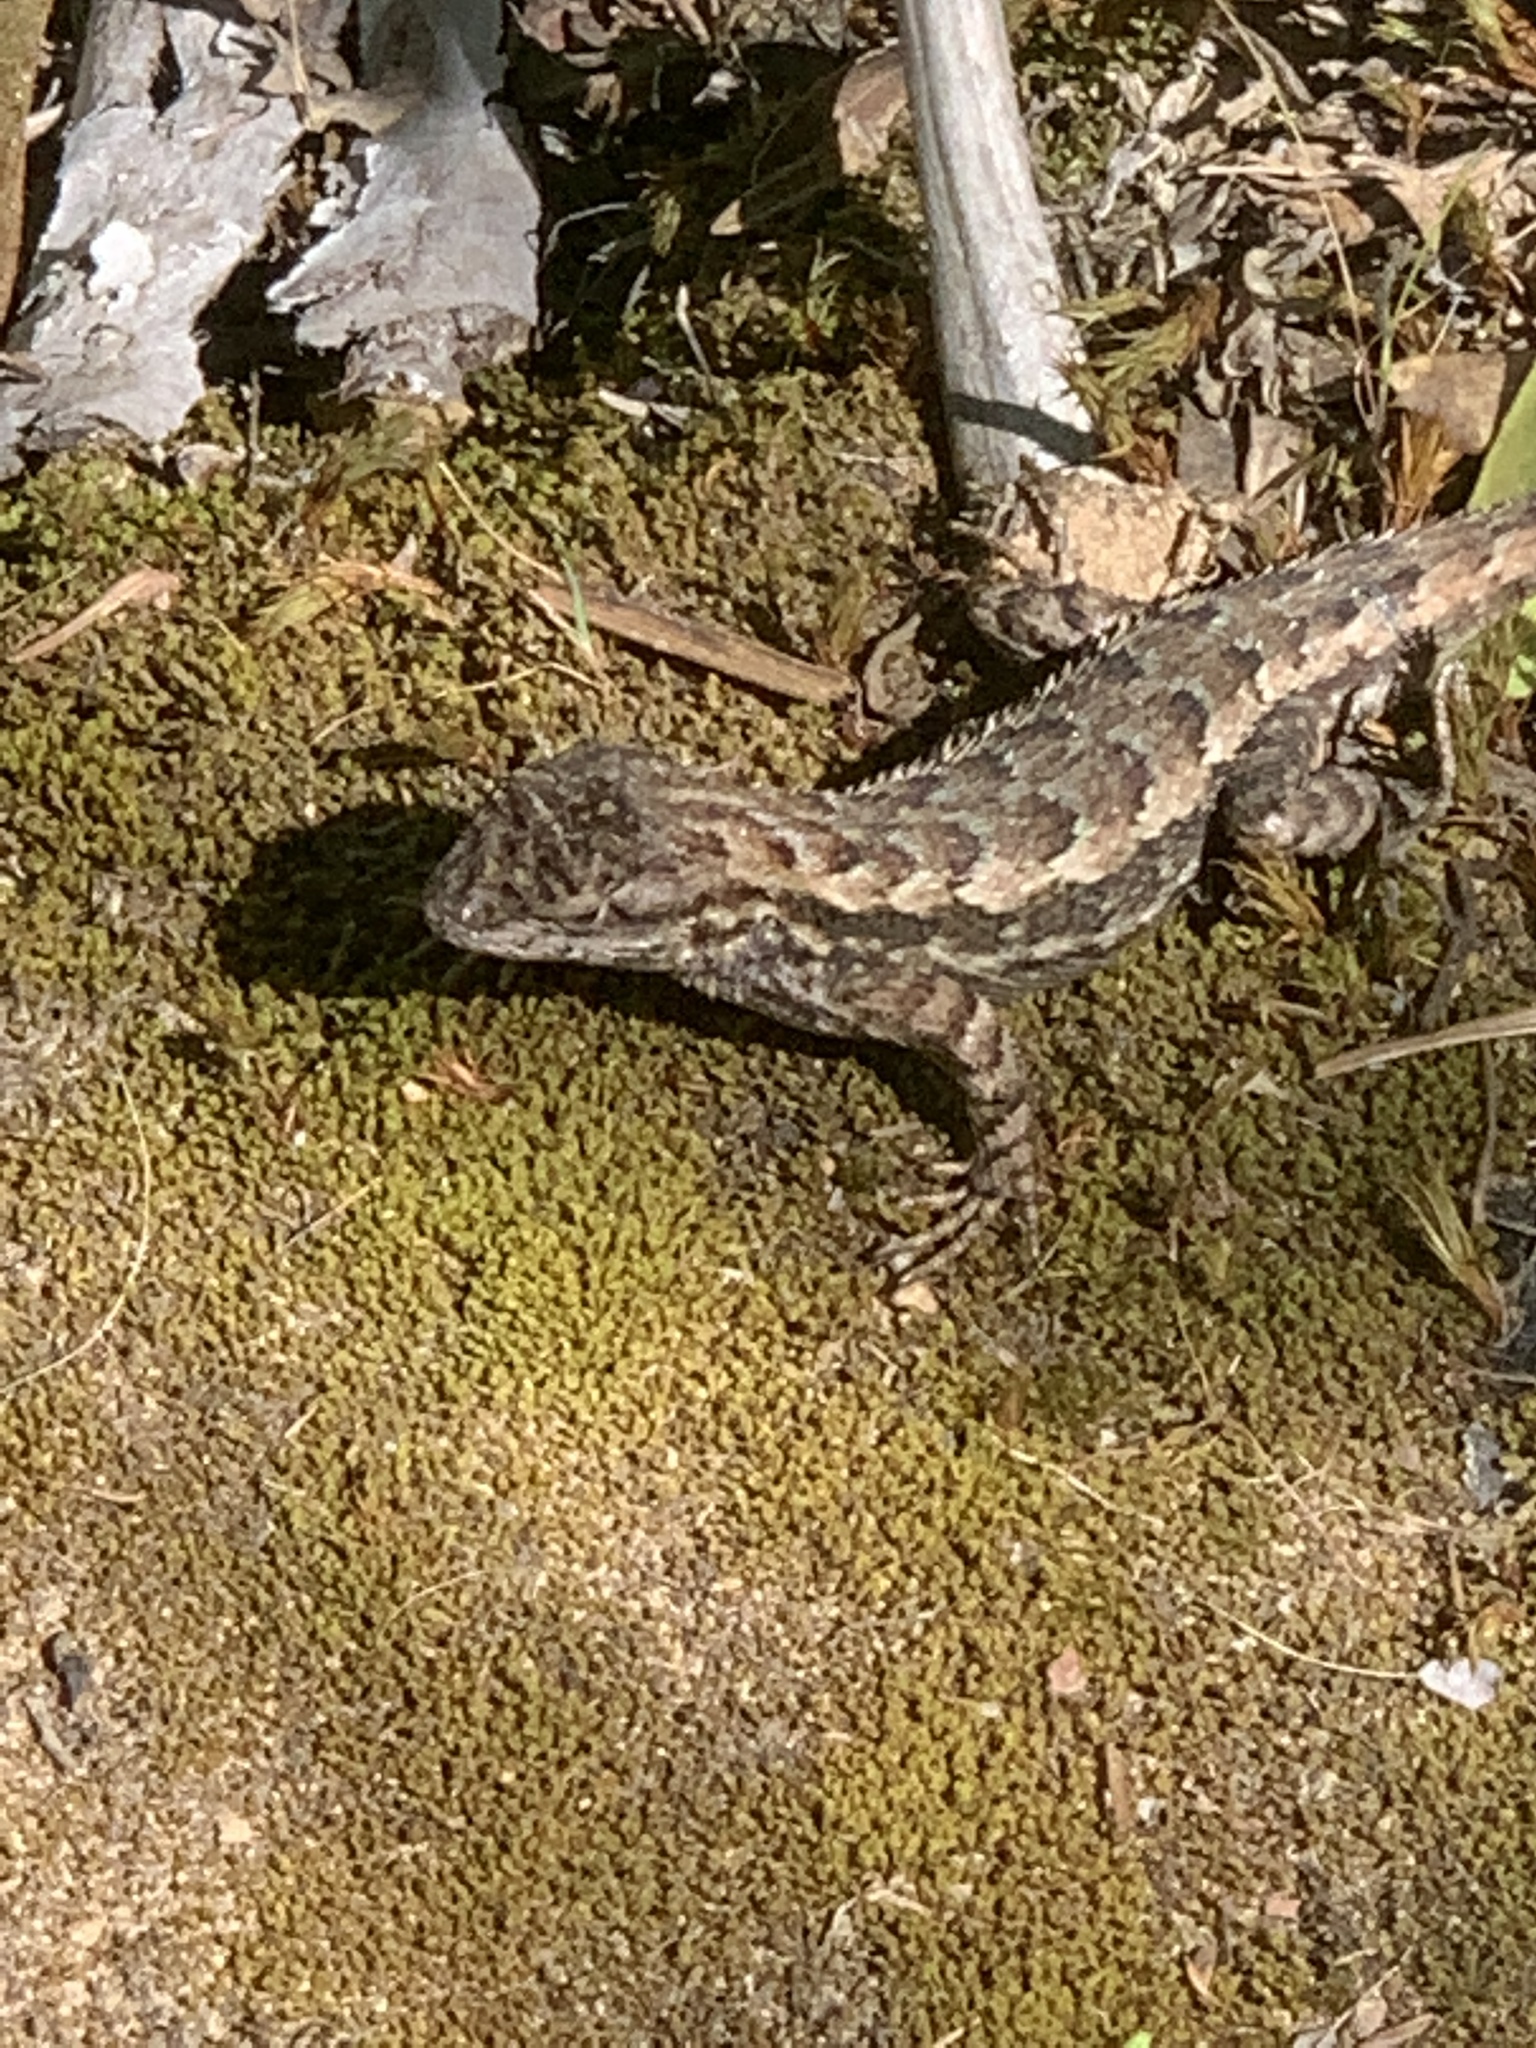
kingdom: Animalia
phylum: Chordata
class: Squamata
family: Phrynosomatidae
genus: Sceloporus
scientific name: Sceloporus occidentalis
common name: Western fence lizard
